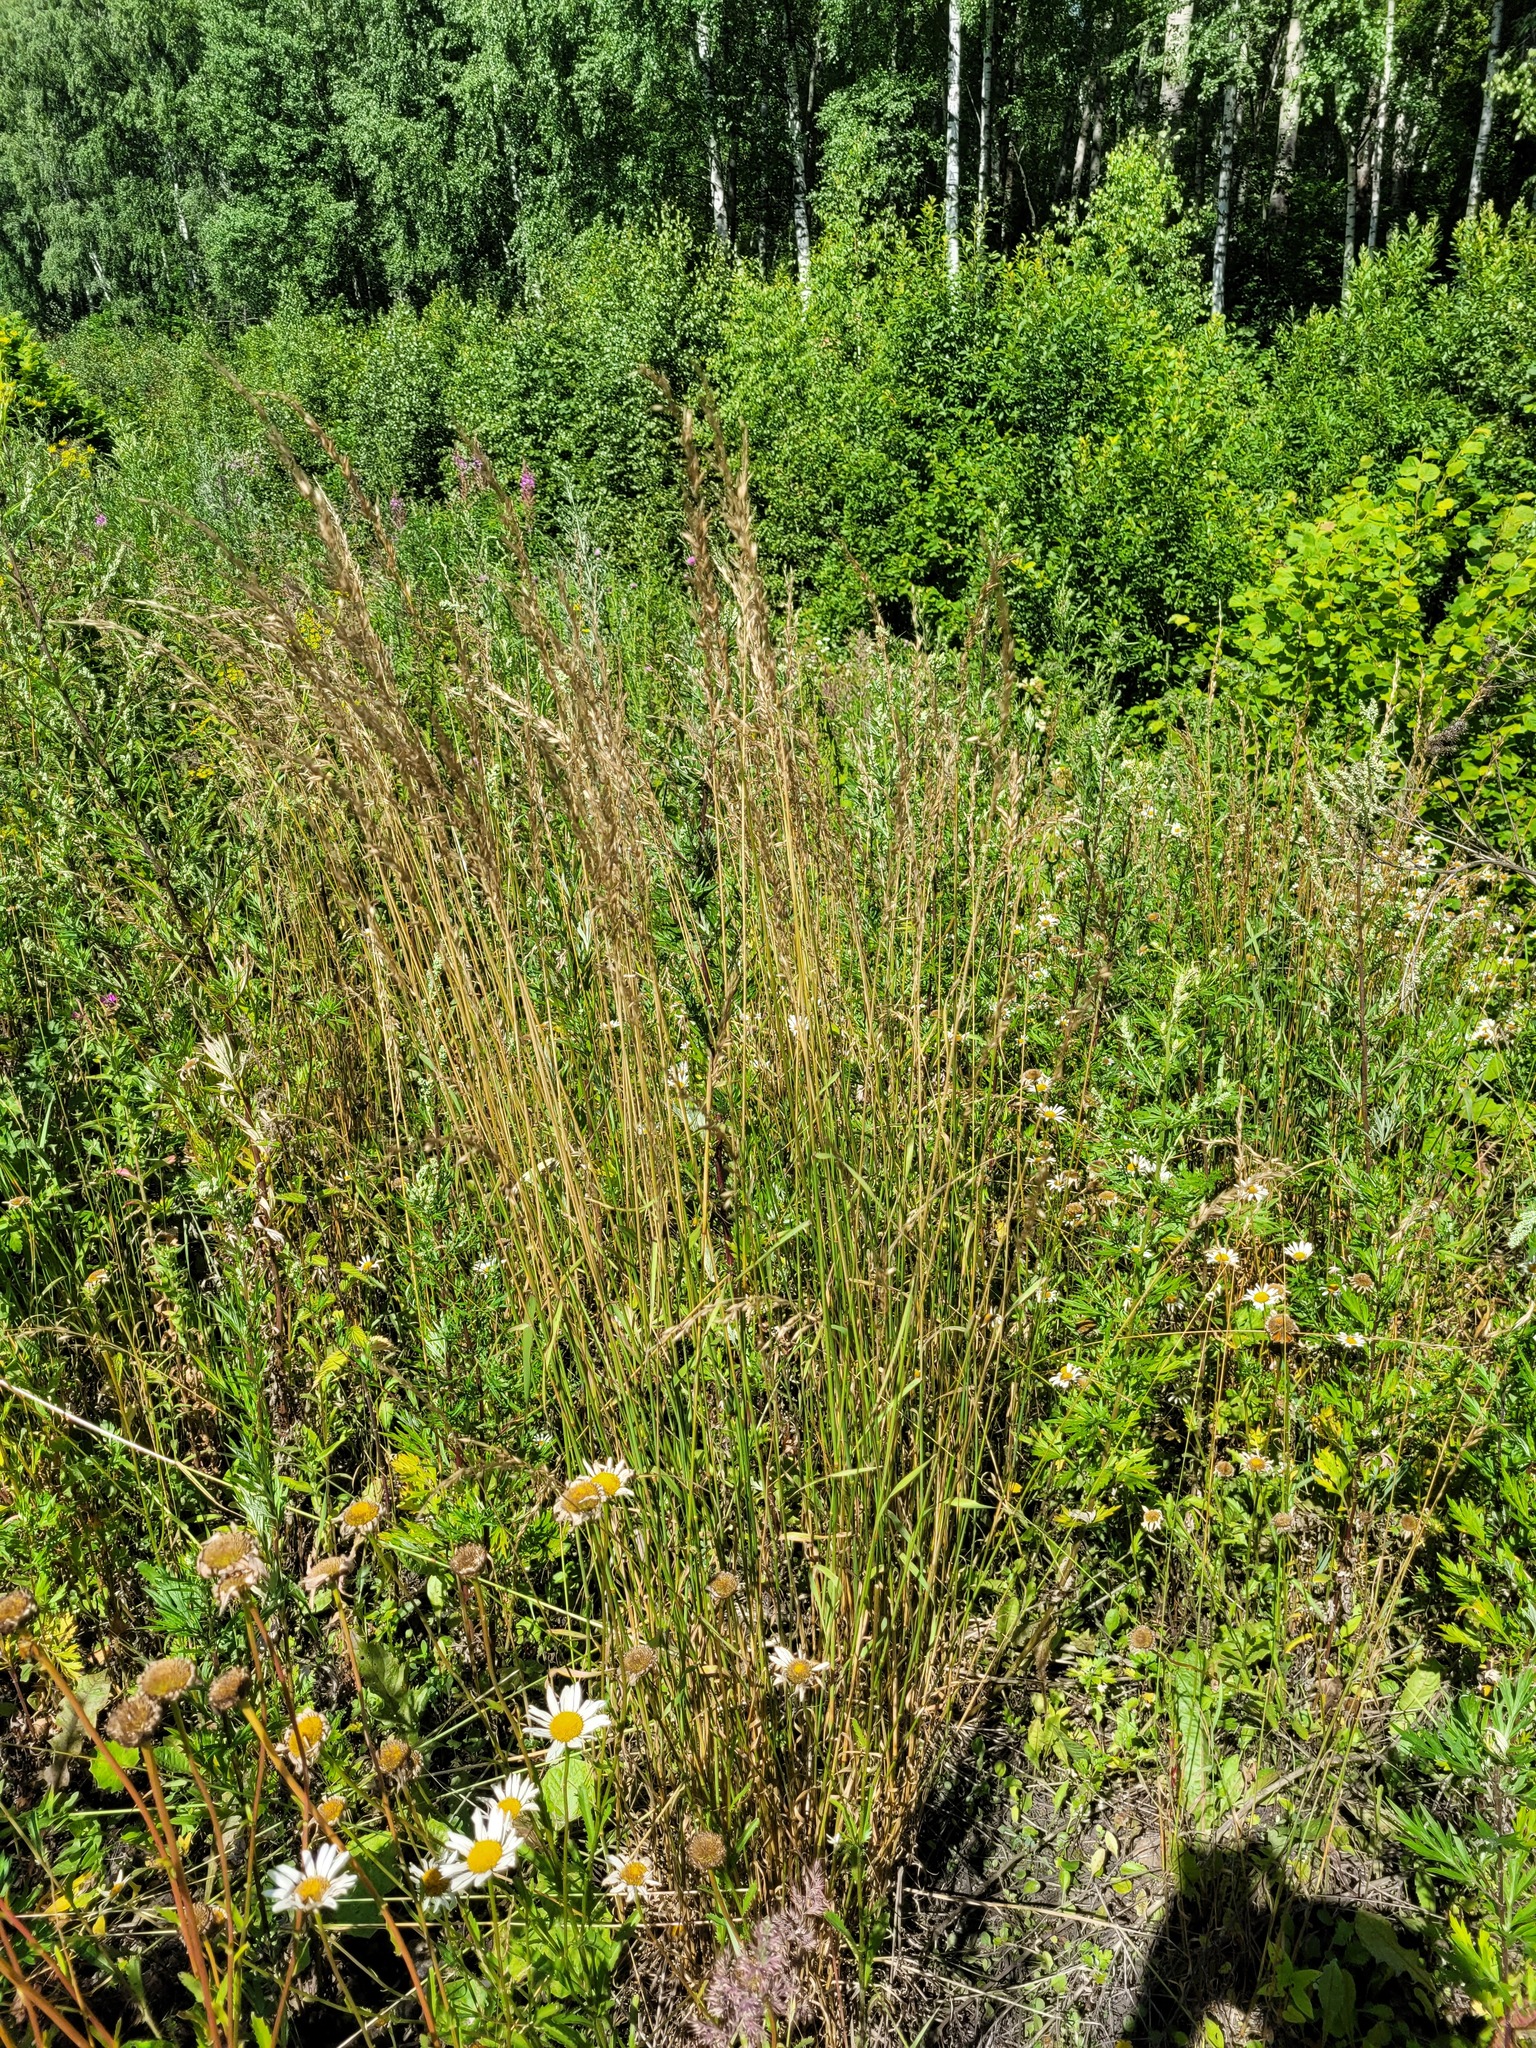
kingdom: Plantae
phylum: Tracheophyta
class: Liliopsida
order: Poales
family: Poaceae
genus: Arrhenatherum
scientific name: Arrhenatherum elatius
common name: Tall oatgrass
